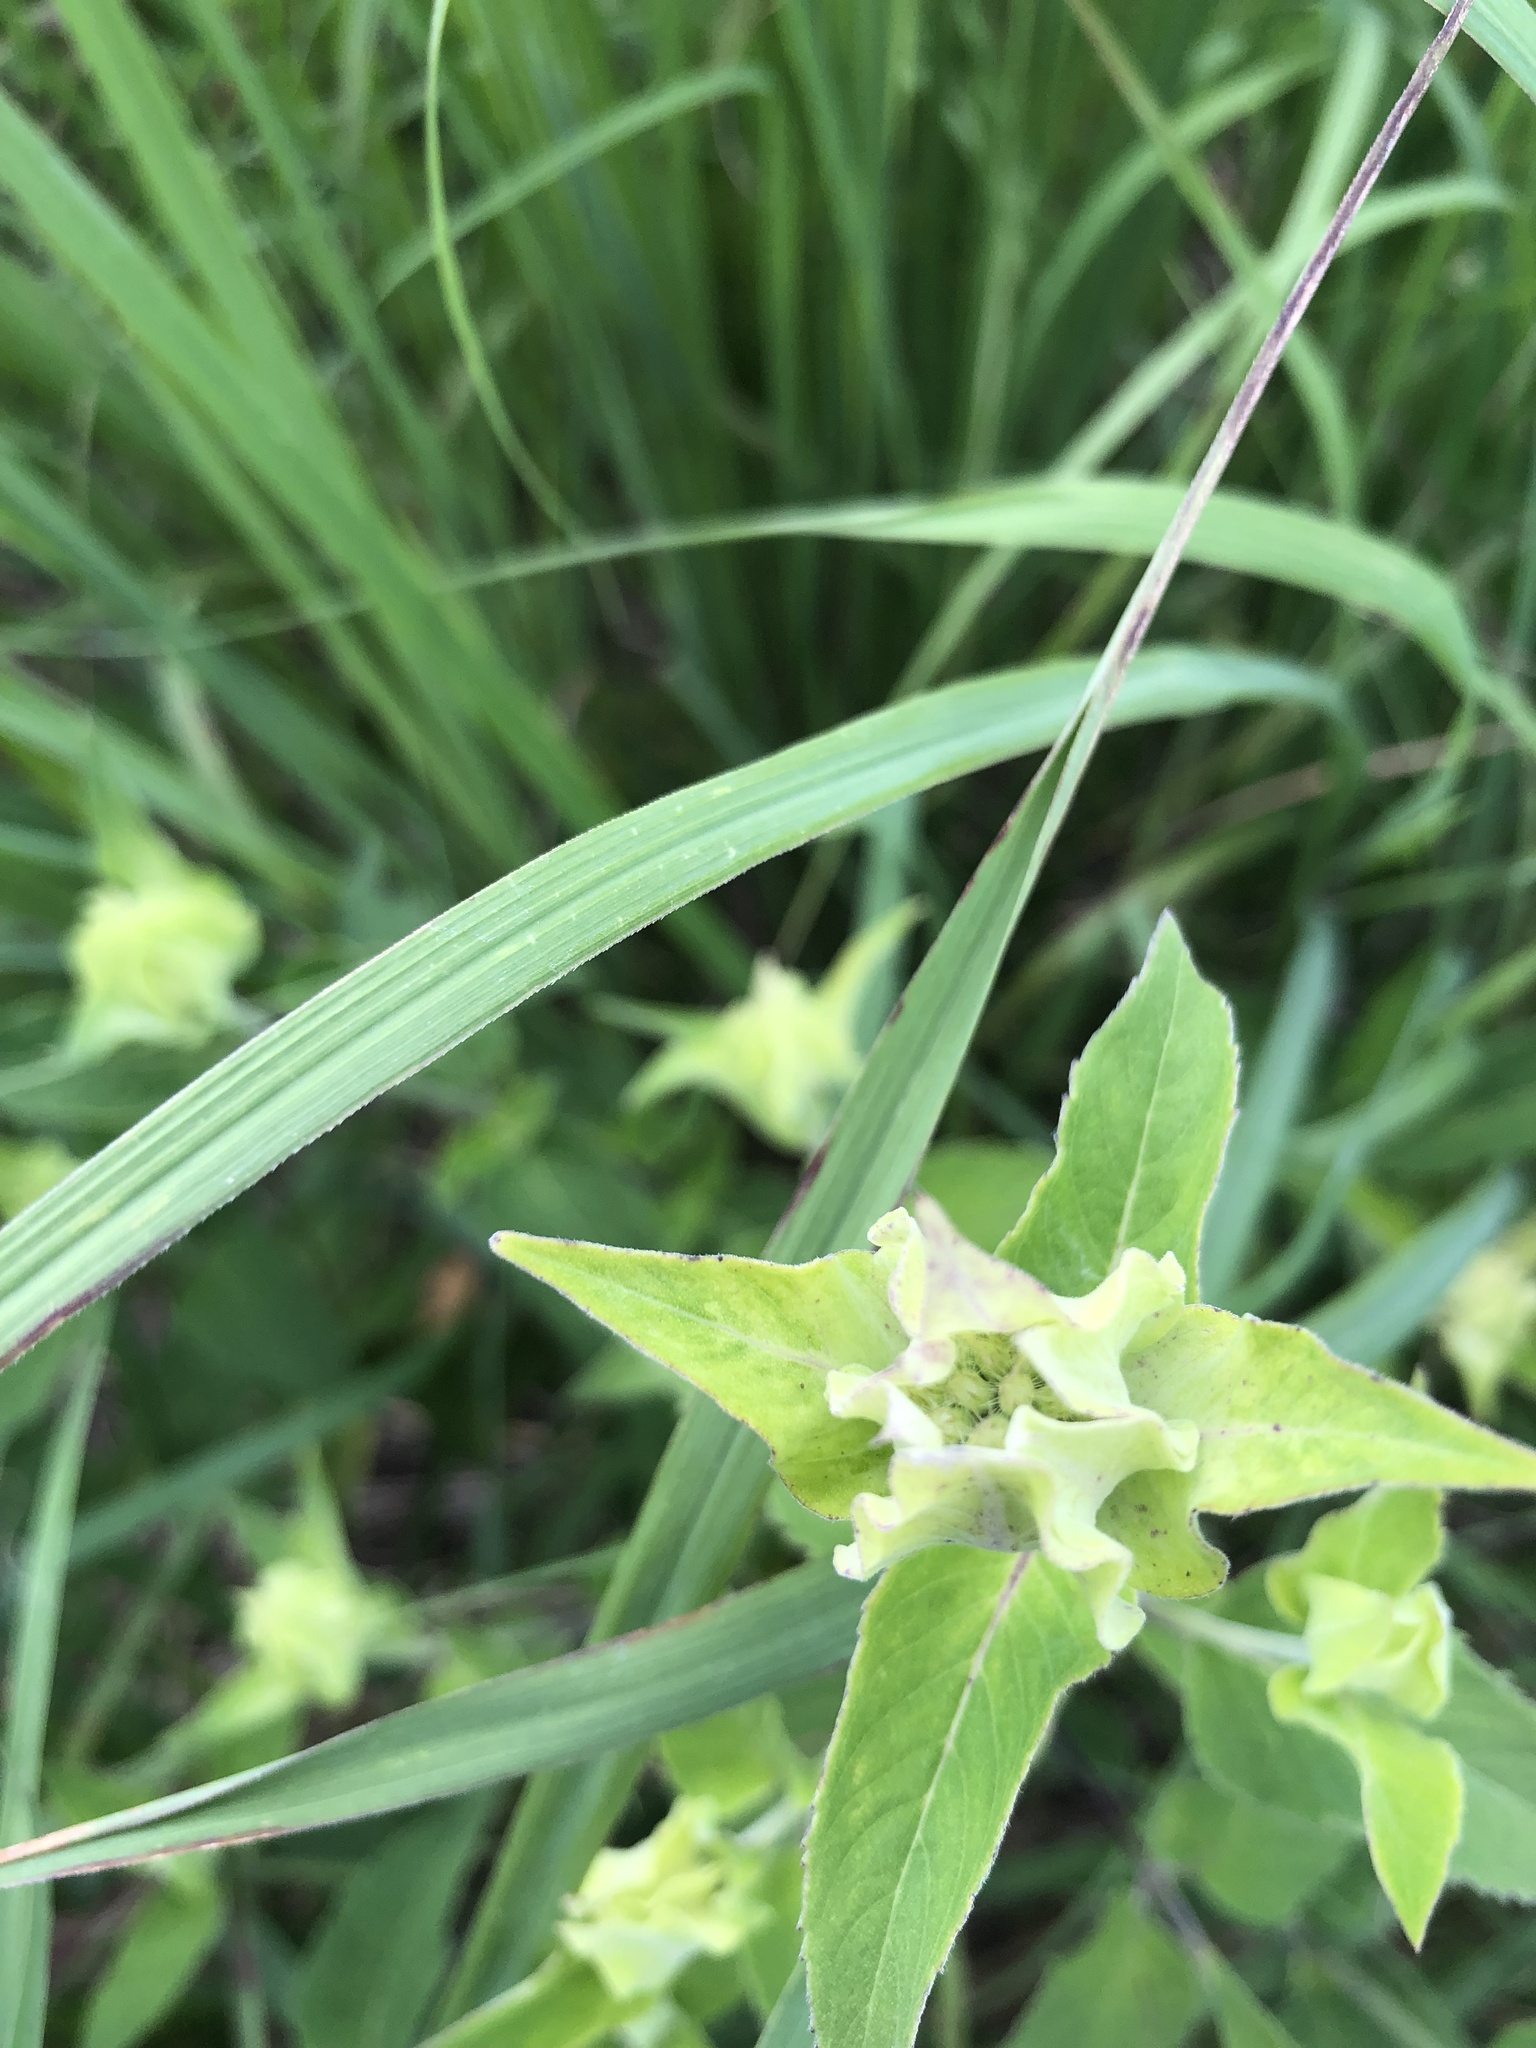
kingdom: Plantae
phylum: Tracheophyta
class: Magnoliopsida
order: Lamiales
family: Lamiaceae
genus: Monarda
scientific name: Monarda fistulosa
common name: Purple beebalm
